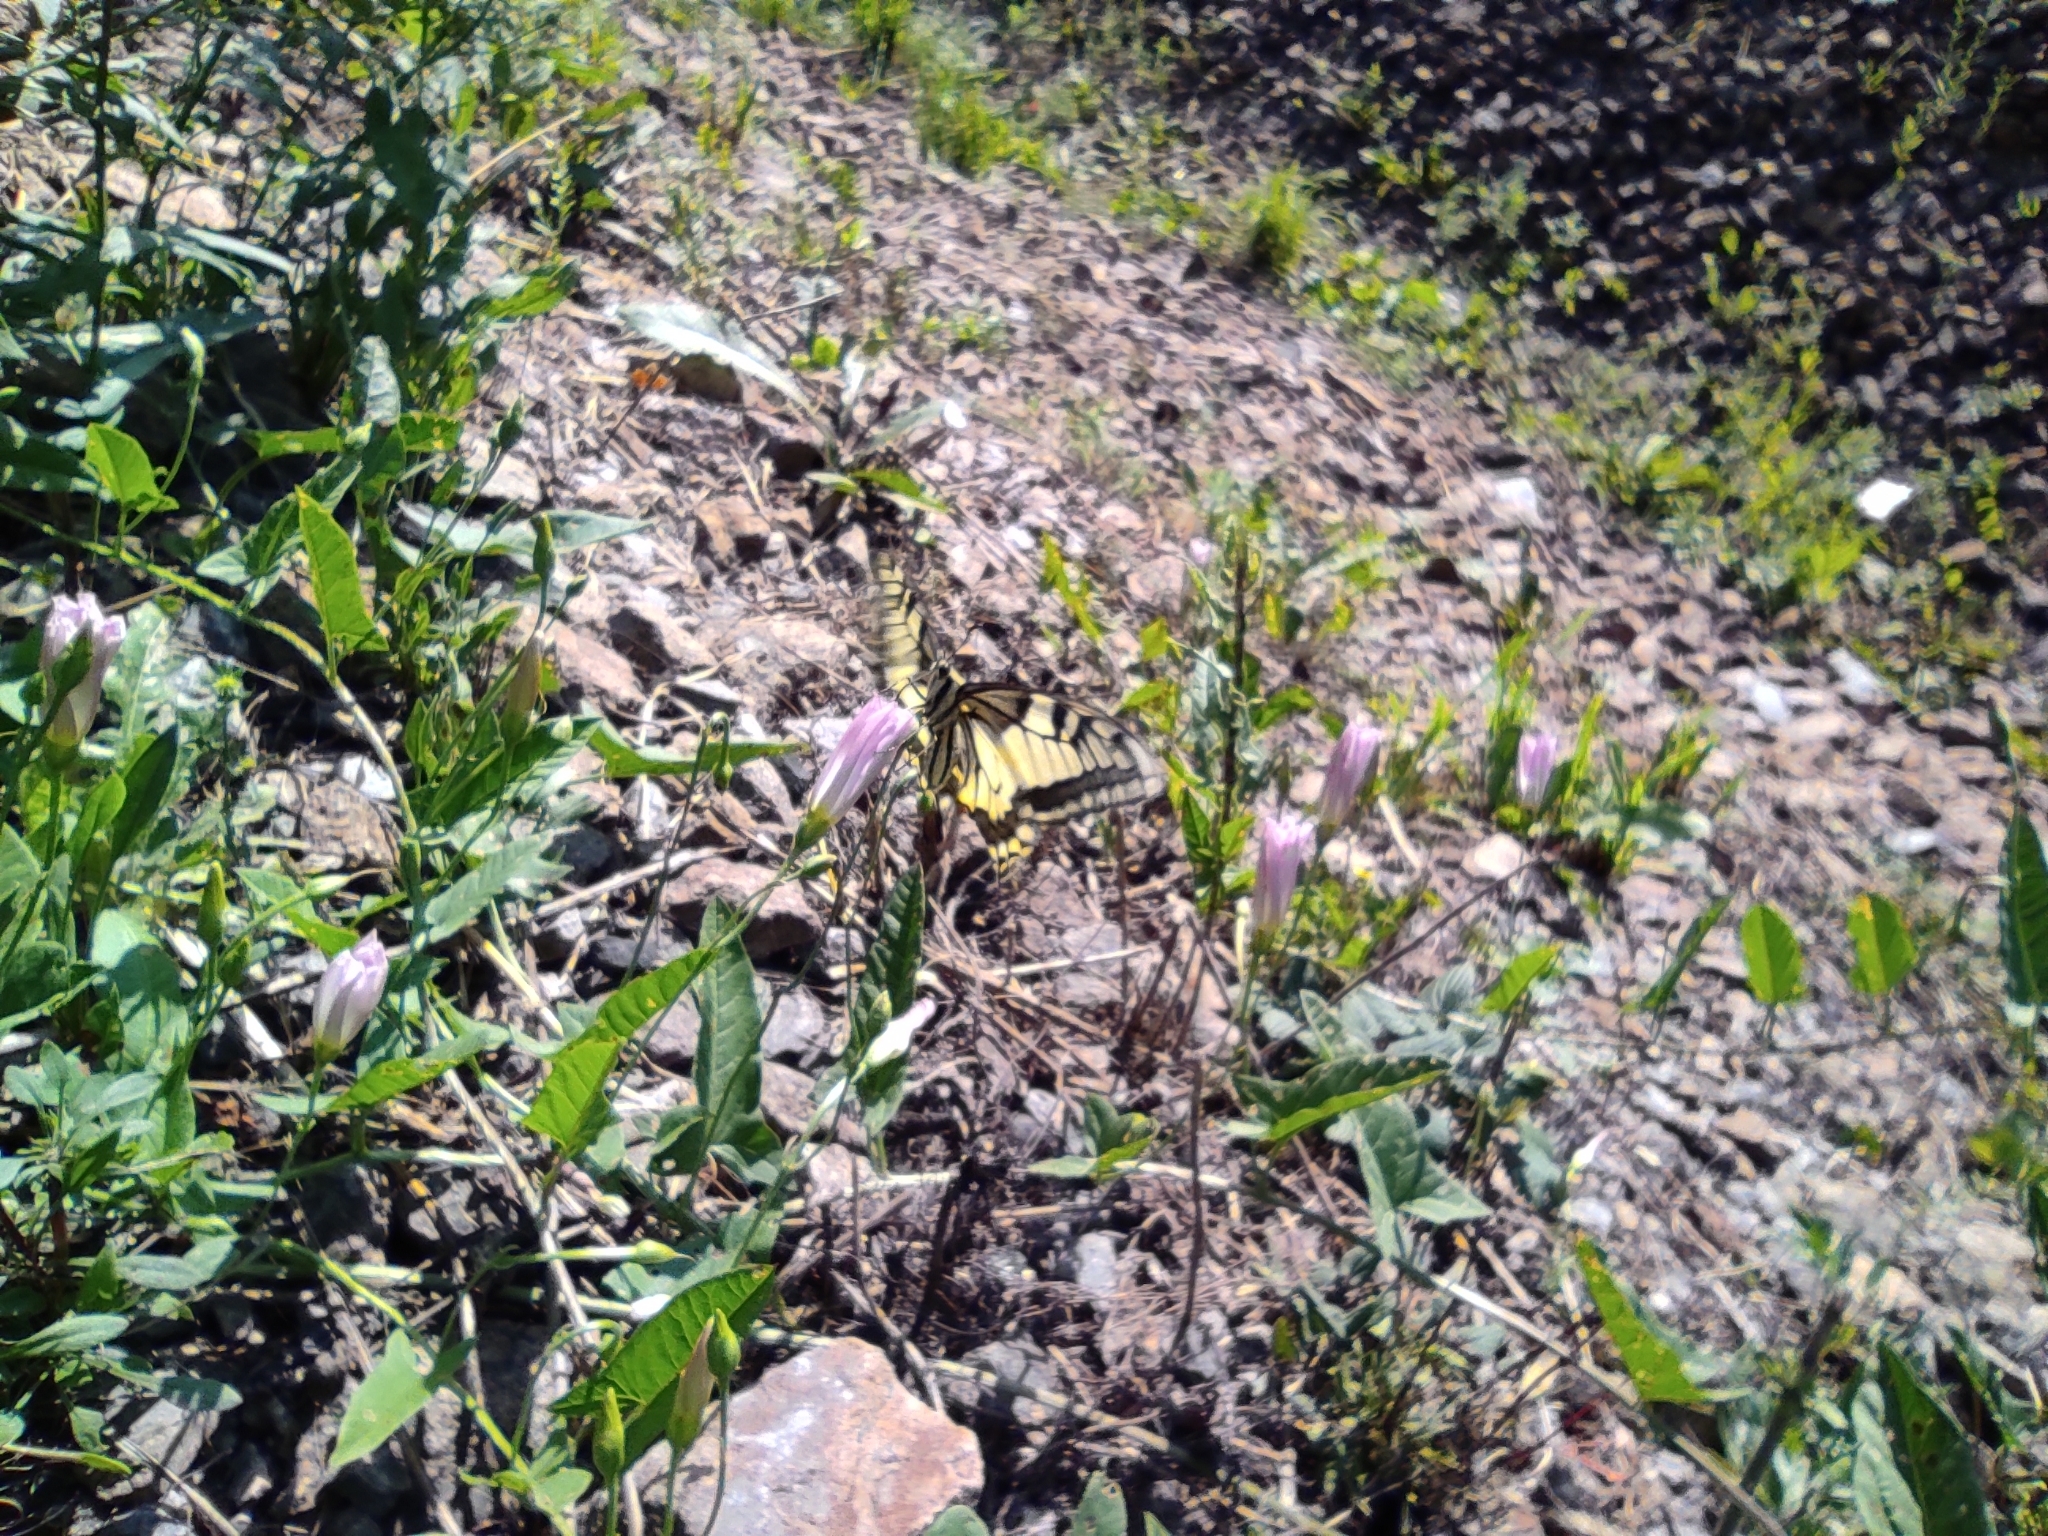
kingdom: Animalia
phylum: Arthropoda
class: Insecta
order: Lepidoptera
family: Papilionidae
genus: Papilio
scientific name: Papilio machaon
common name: Swallowtail
